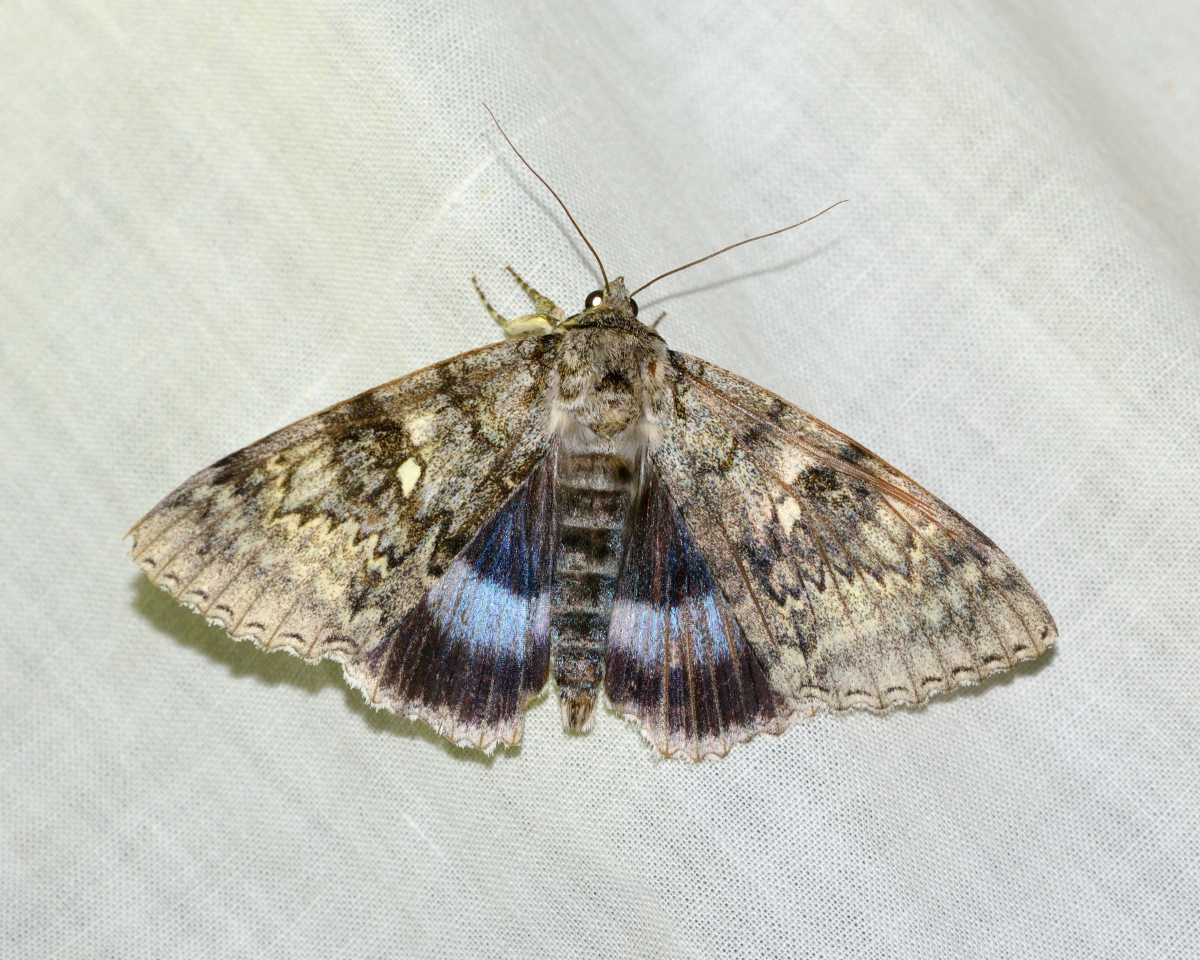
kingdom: Animalia
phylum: Arthropoda
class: Insecta
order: Lepidoptera
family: Erebidae
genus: Catocala
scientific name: Catocala fraxini
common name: Clifden nonpareil
